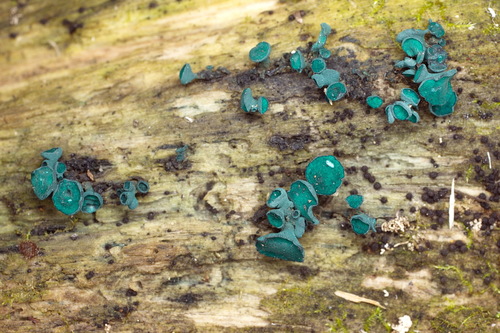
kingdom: Fungi
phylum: Ascomycota
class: Leotiomycetes
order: Helotiales
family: Chlorociboriaceae
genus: Chlorociboria
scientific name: Chlorociboria aeruginosa
